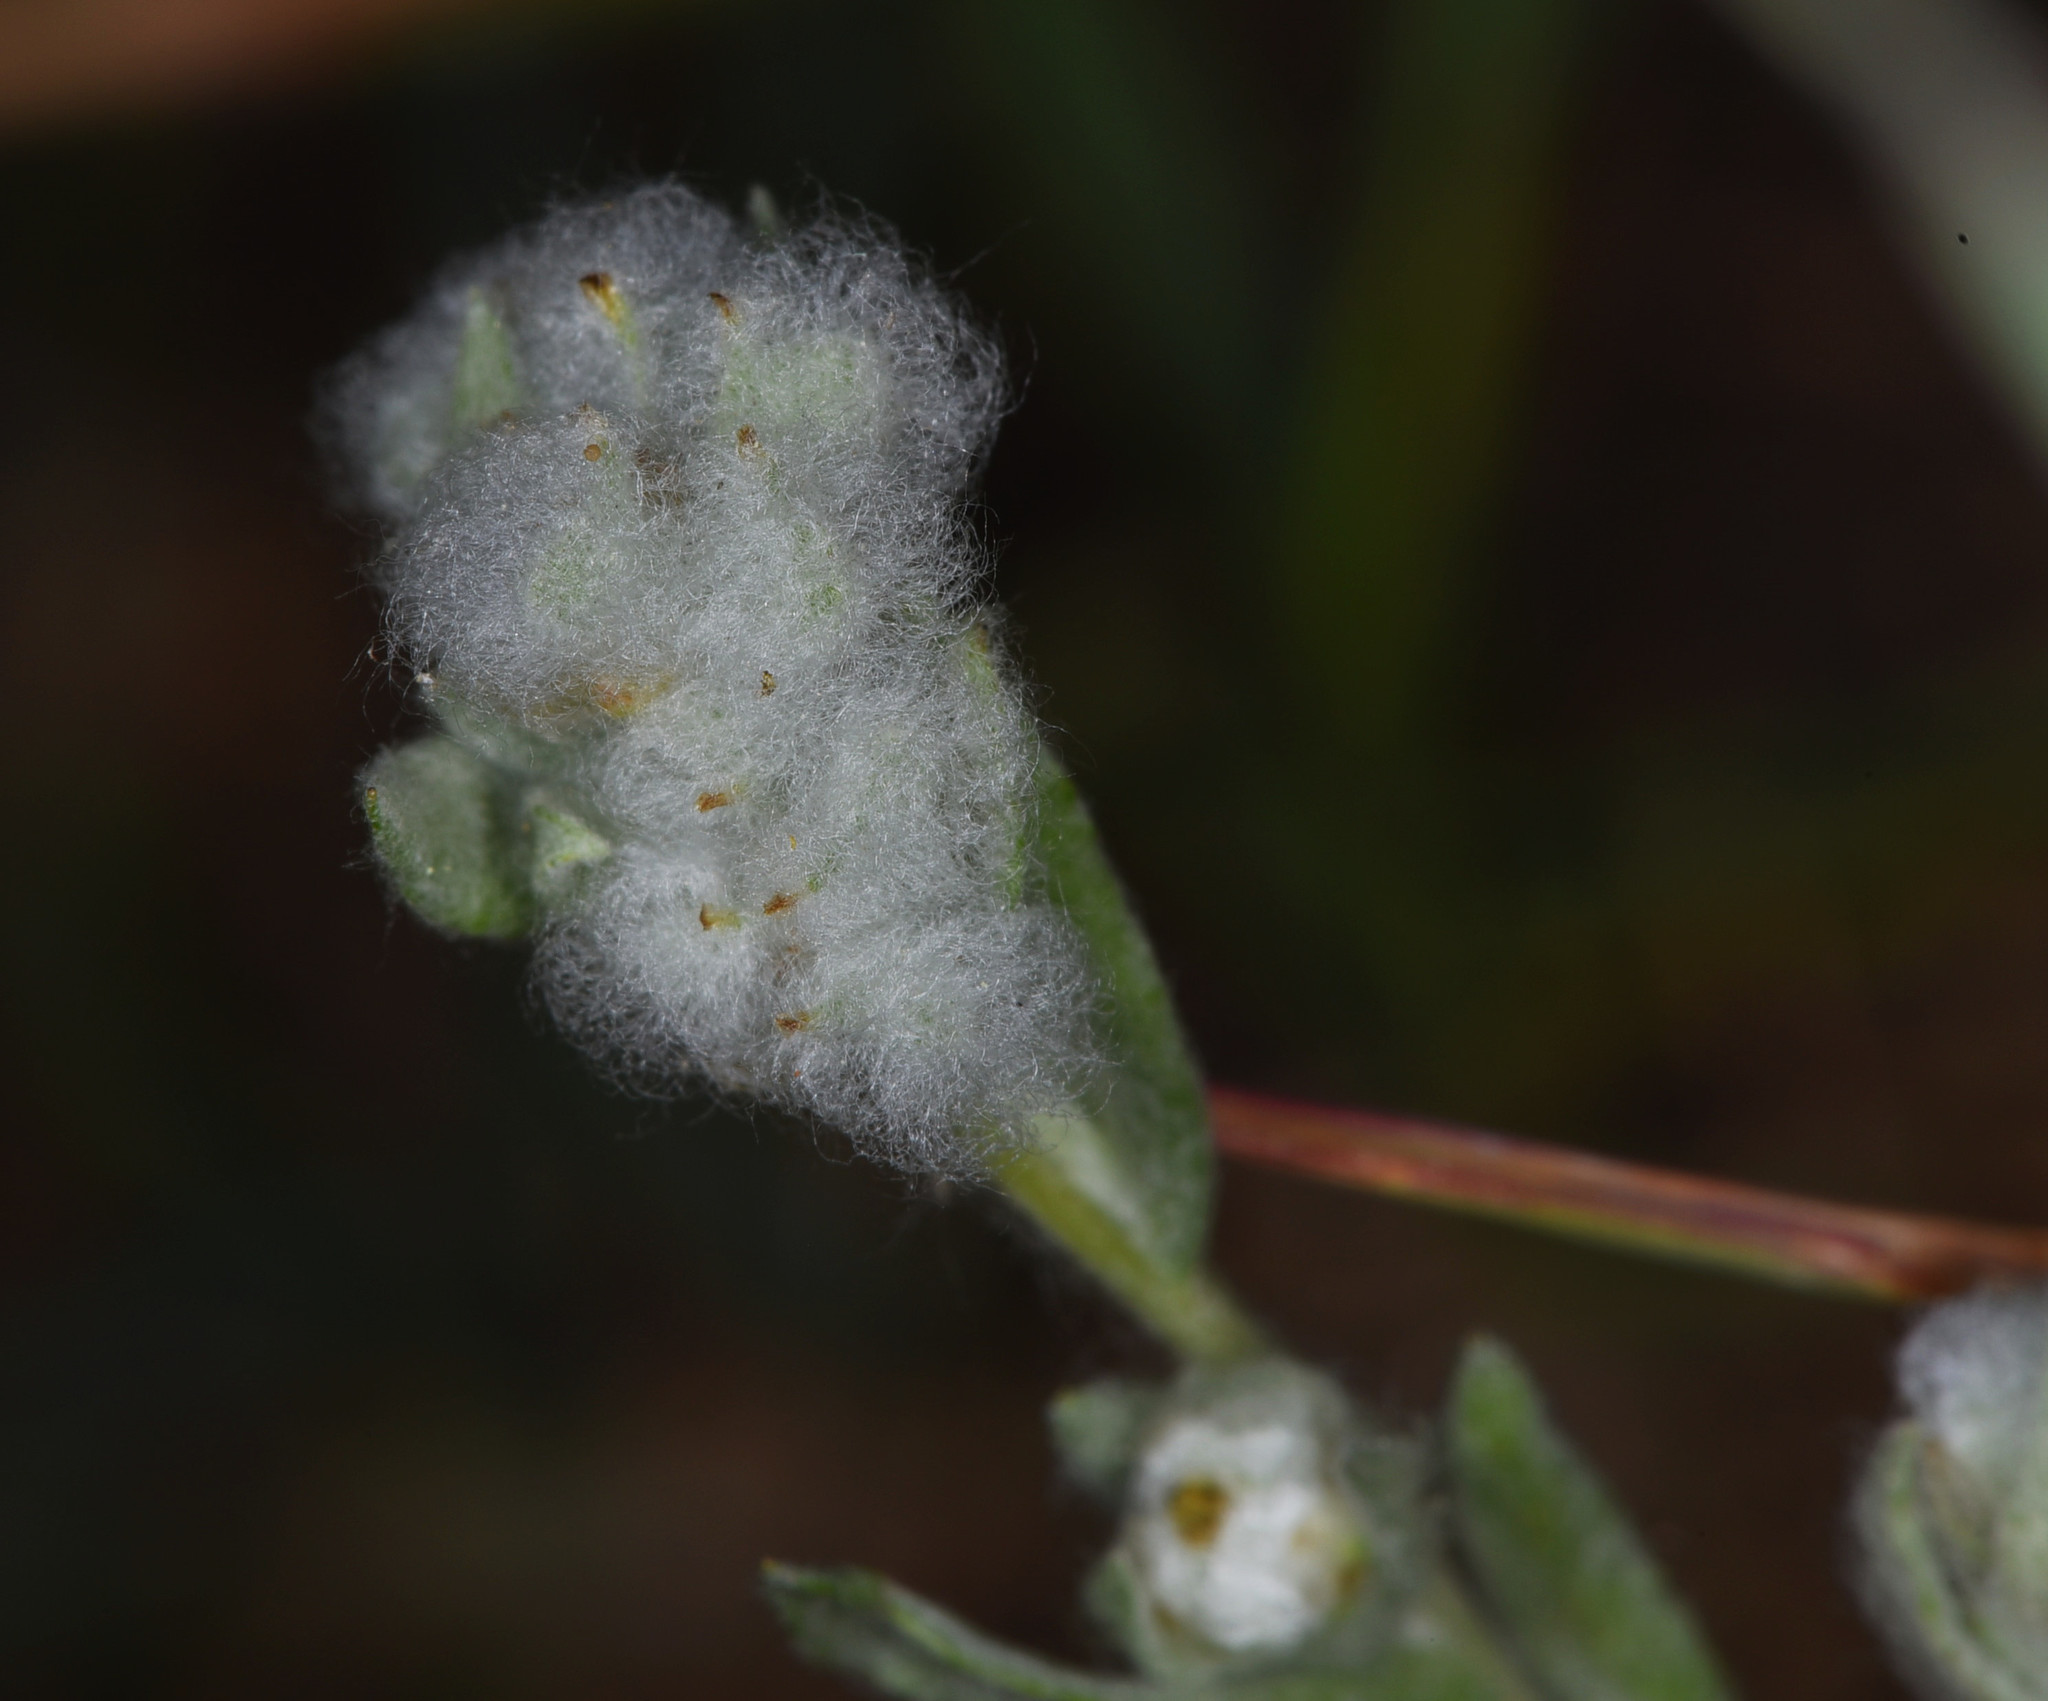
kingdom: Plantae
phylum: Tracheophyta
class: Magnoliopsida
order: Asterales
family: Asteraceae
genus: Bombycilaena
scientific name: Bombycilaena californica
